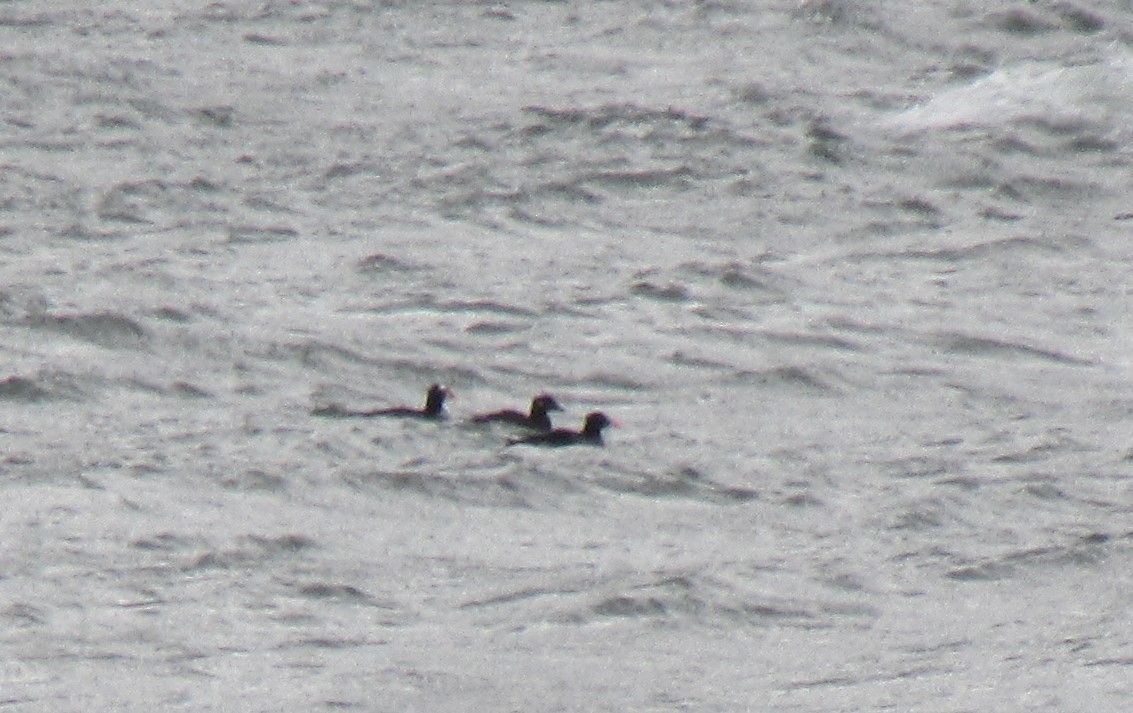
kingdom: Animalia
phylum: Chordata
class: Aves
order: Anseriformes
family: Anatidae
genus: Melanitta
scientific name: Melanitta perspicillata
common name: Surf scoter
